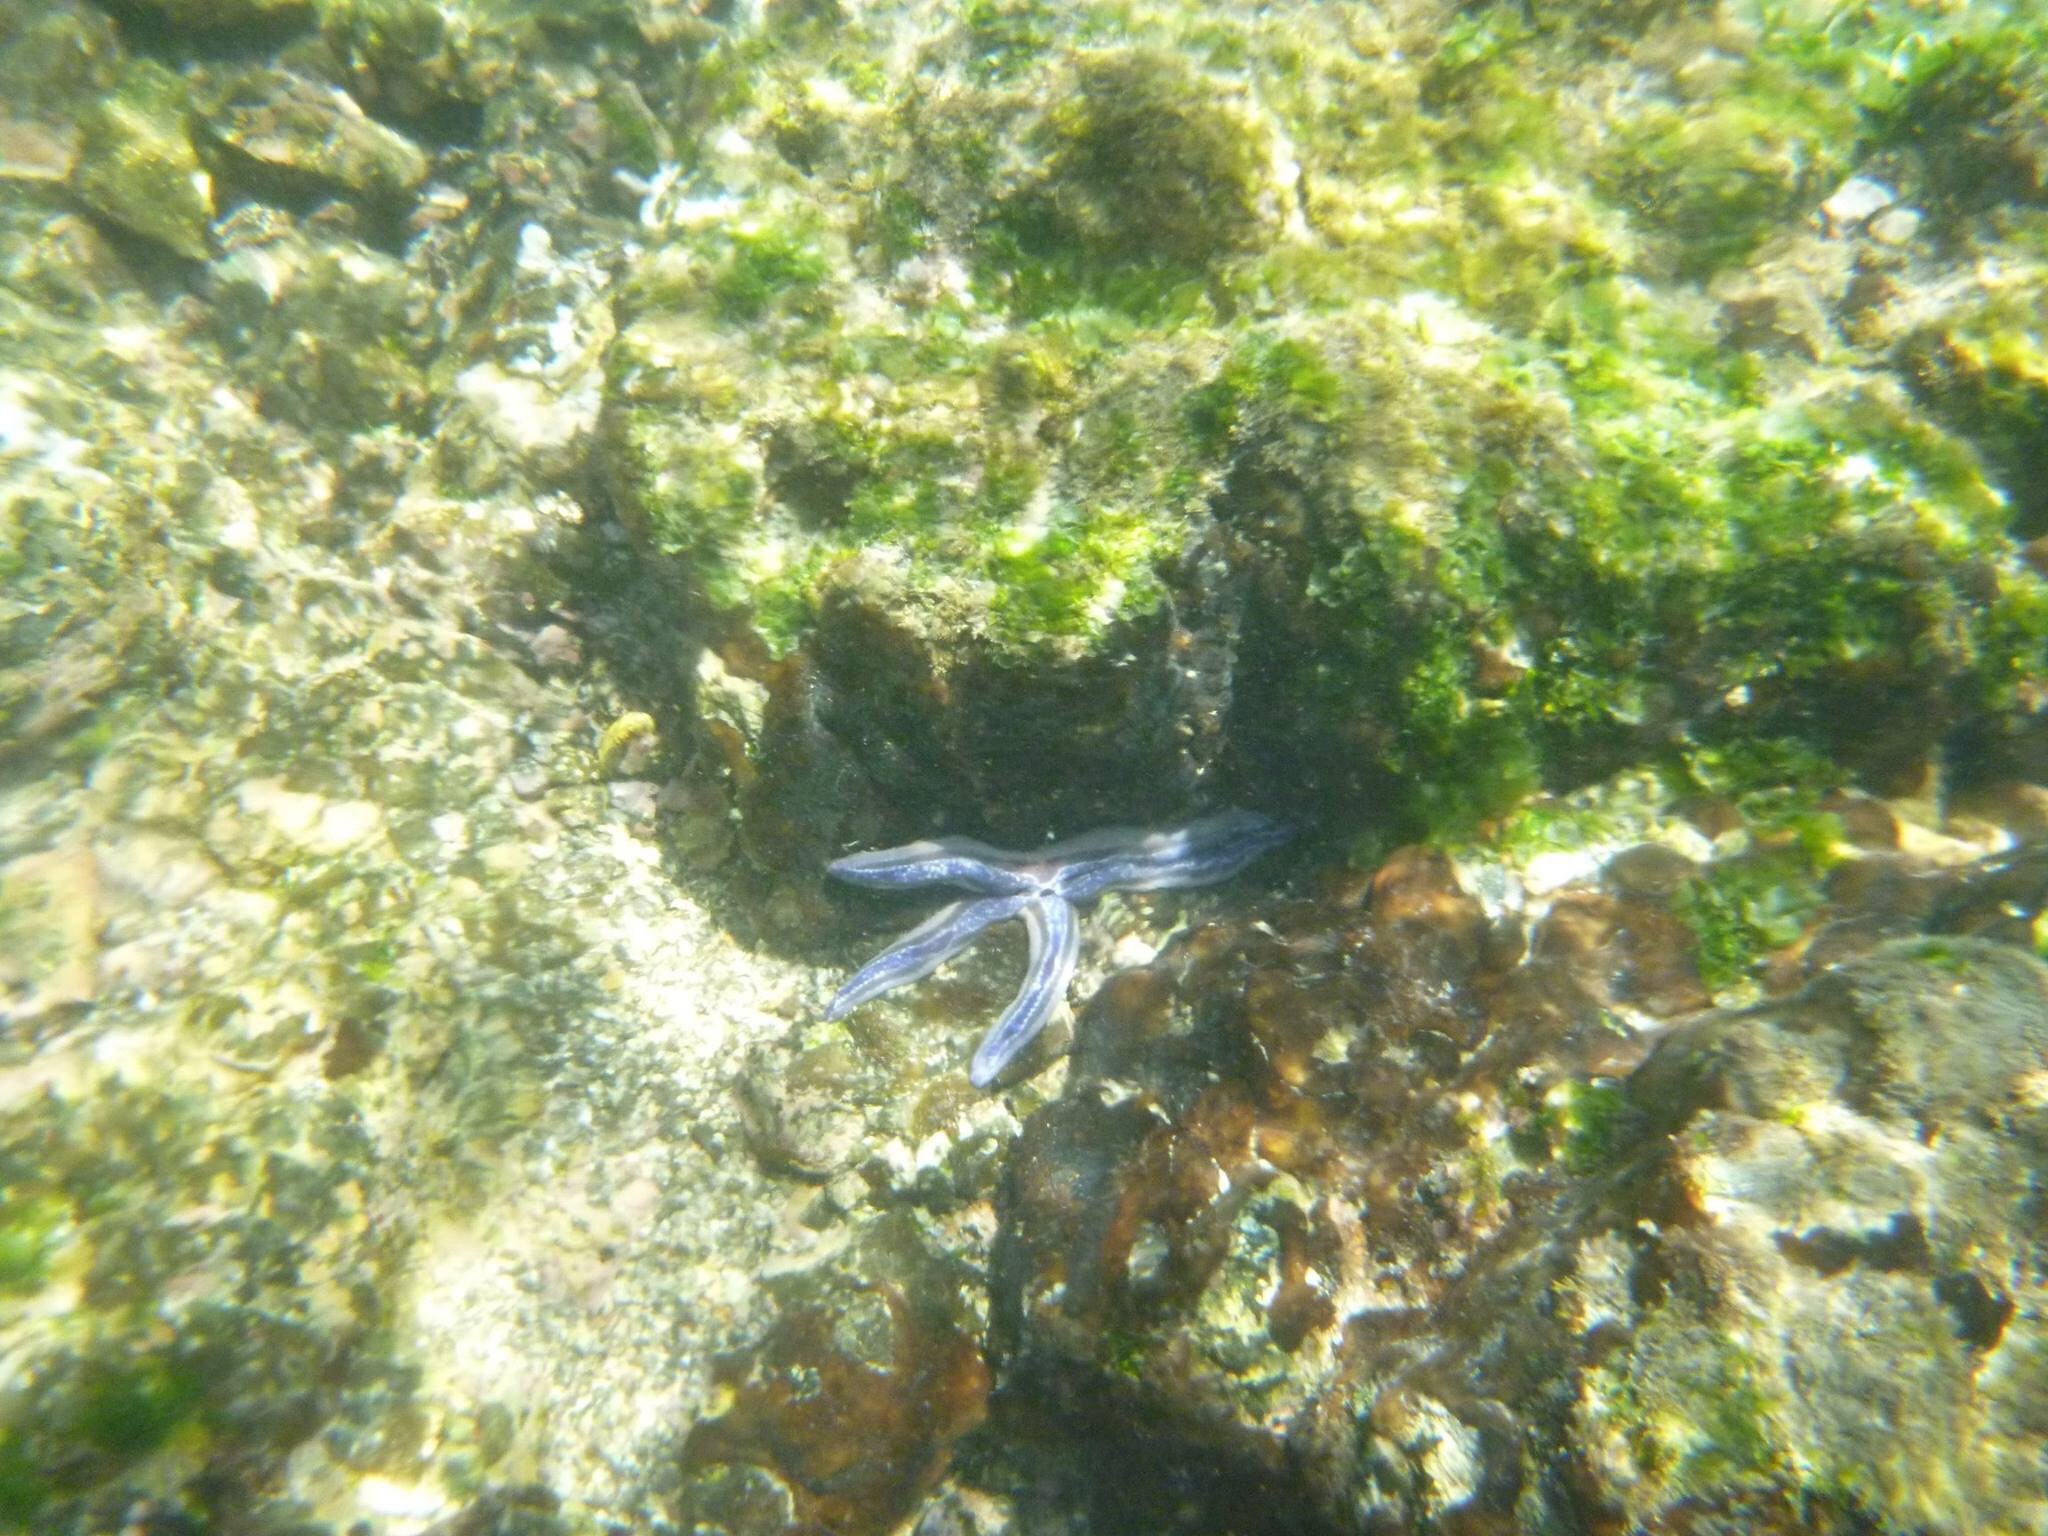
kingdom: Animalia
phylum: Echinodermata
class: Asteroidea
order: Valvatida
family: Ophidiasteridae
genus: Phataria
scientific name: Phataria unifascialis
